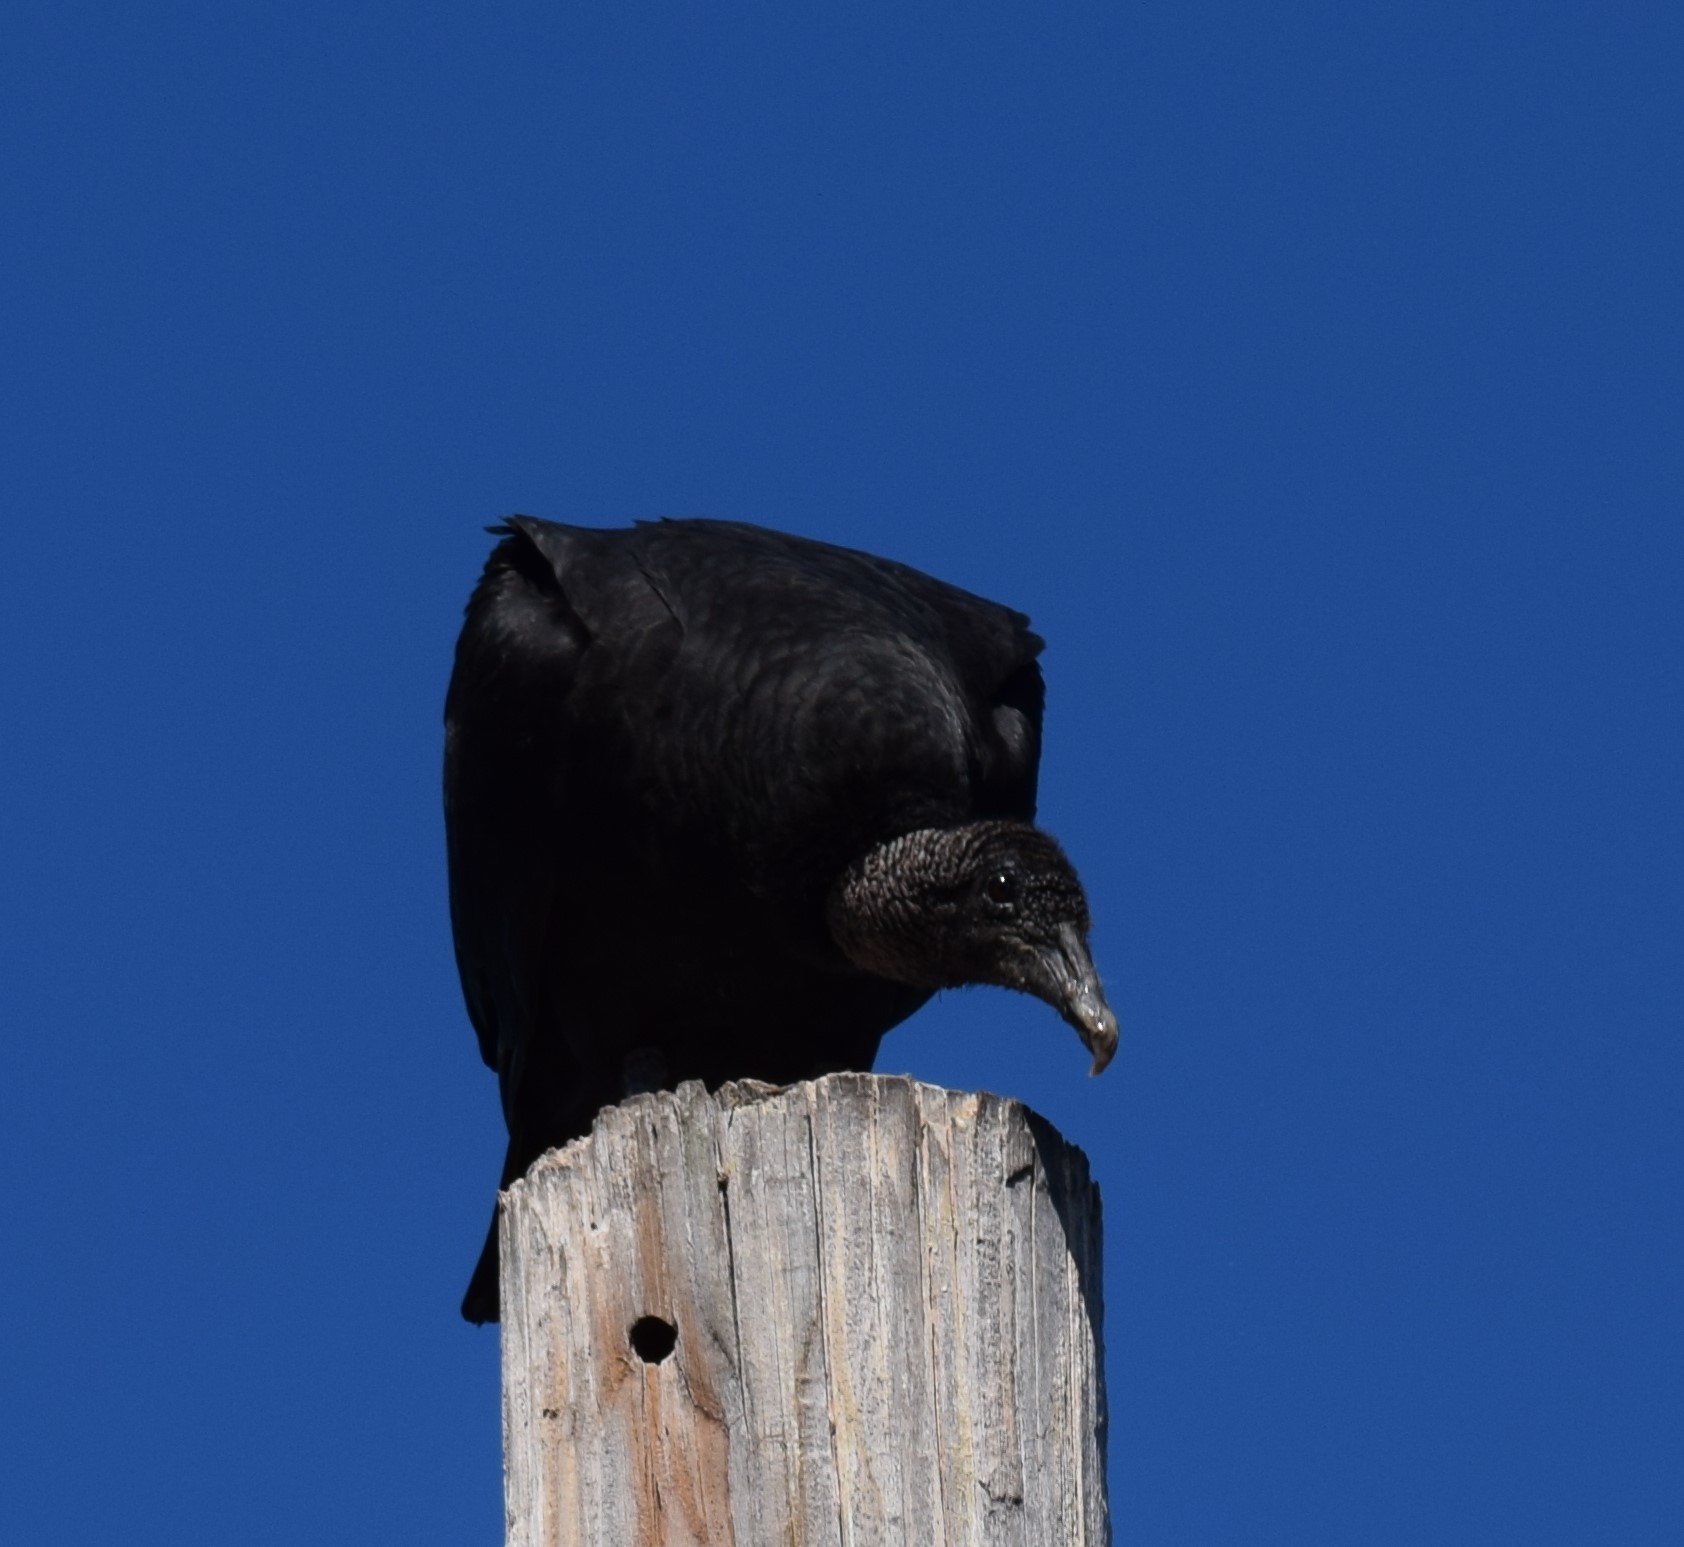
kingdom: Animalia
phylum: Chordata
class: Aves
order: Accipitriformes
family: Cathartidae
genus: Coragyps
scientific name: Coragyps atratus
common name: Black vulture
